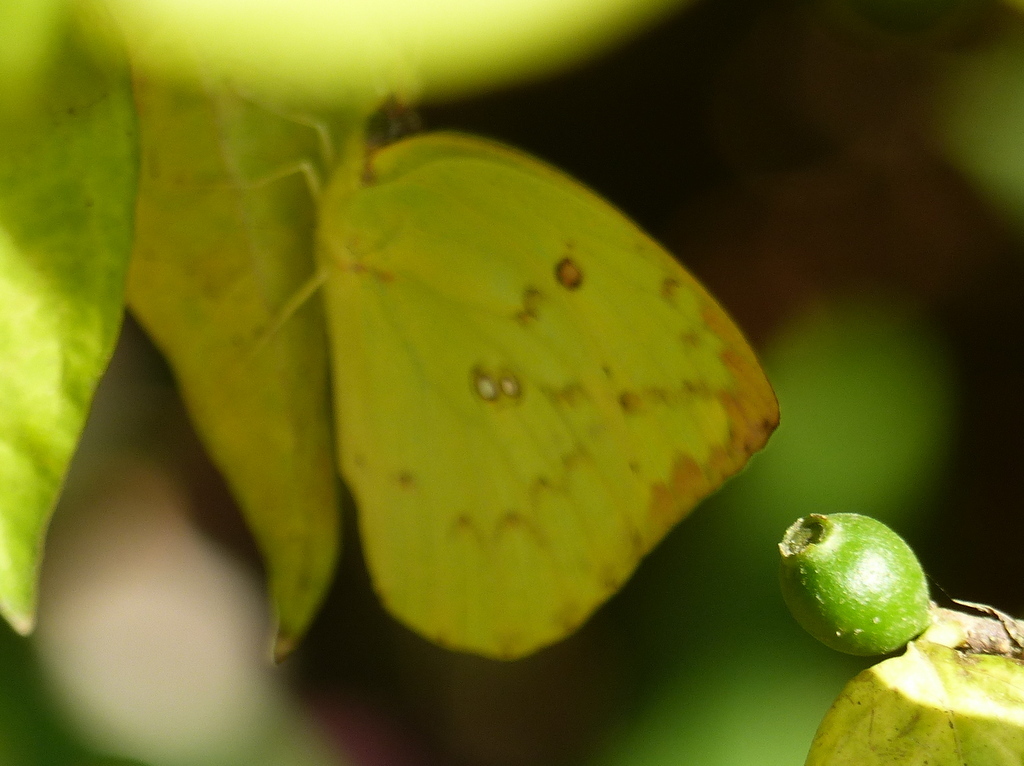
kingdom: Animalia
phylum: Arthropoda
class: Insecta
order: Lepidoptera
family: Pieridae
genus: Eurema
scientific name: Eurema hecabe
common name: Pale grass yellow
